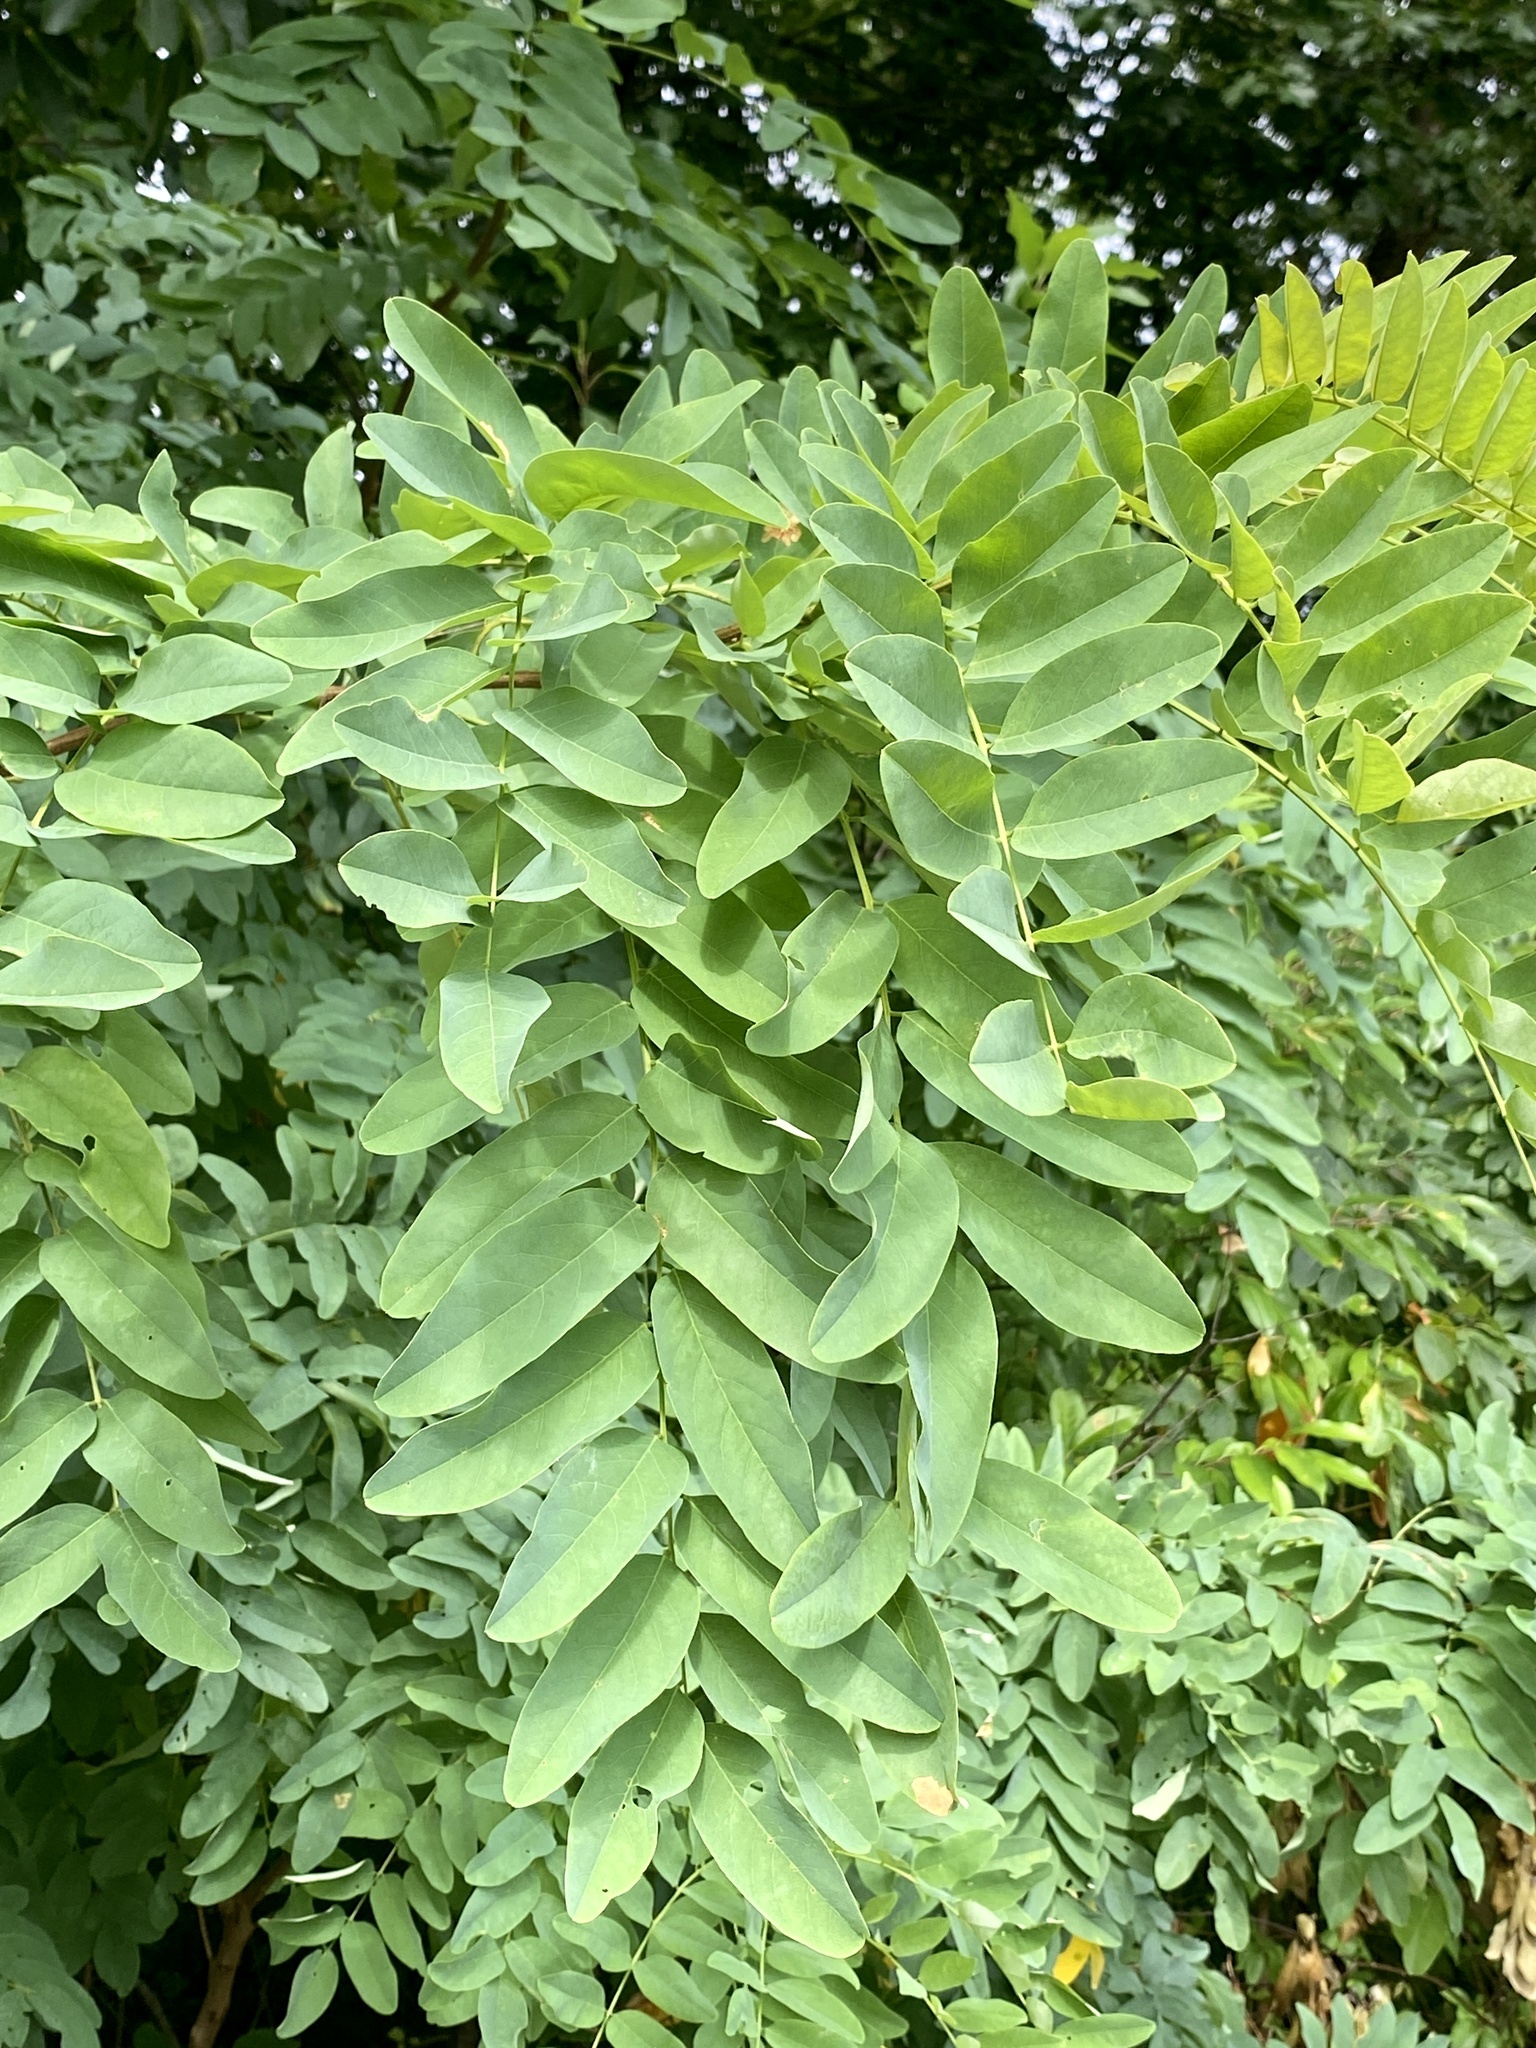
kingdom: Plantae
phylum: Tracheophyta
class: Magnoliopsida
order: Fabales
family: Fabaceae
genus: Robinia
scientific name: Robinia pseudoacacia
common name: Black locust
